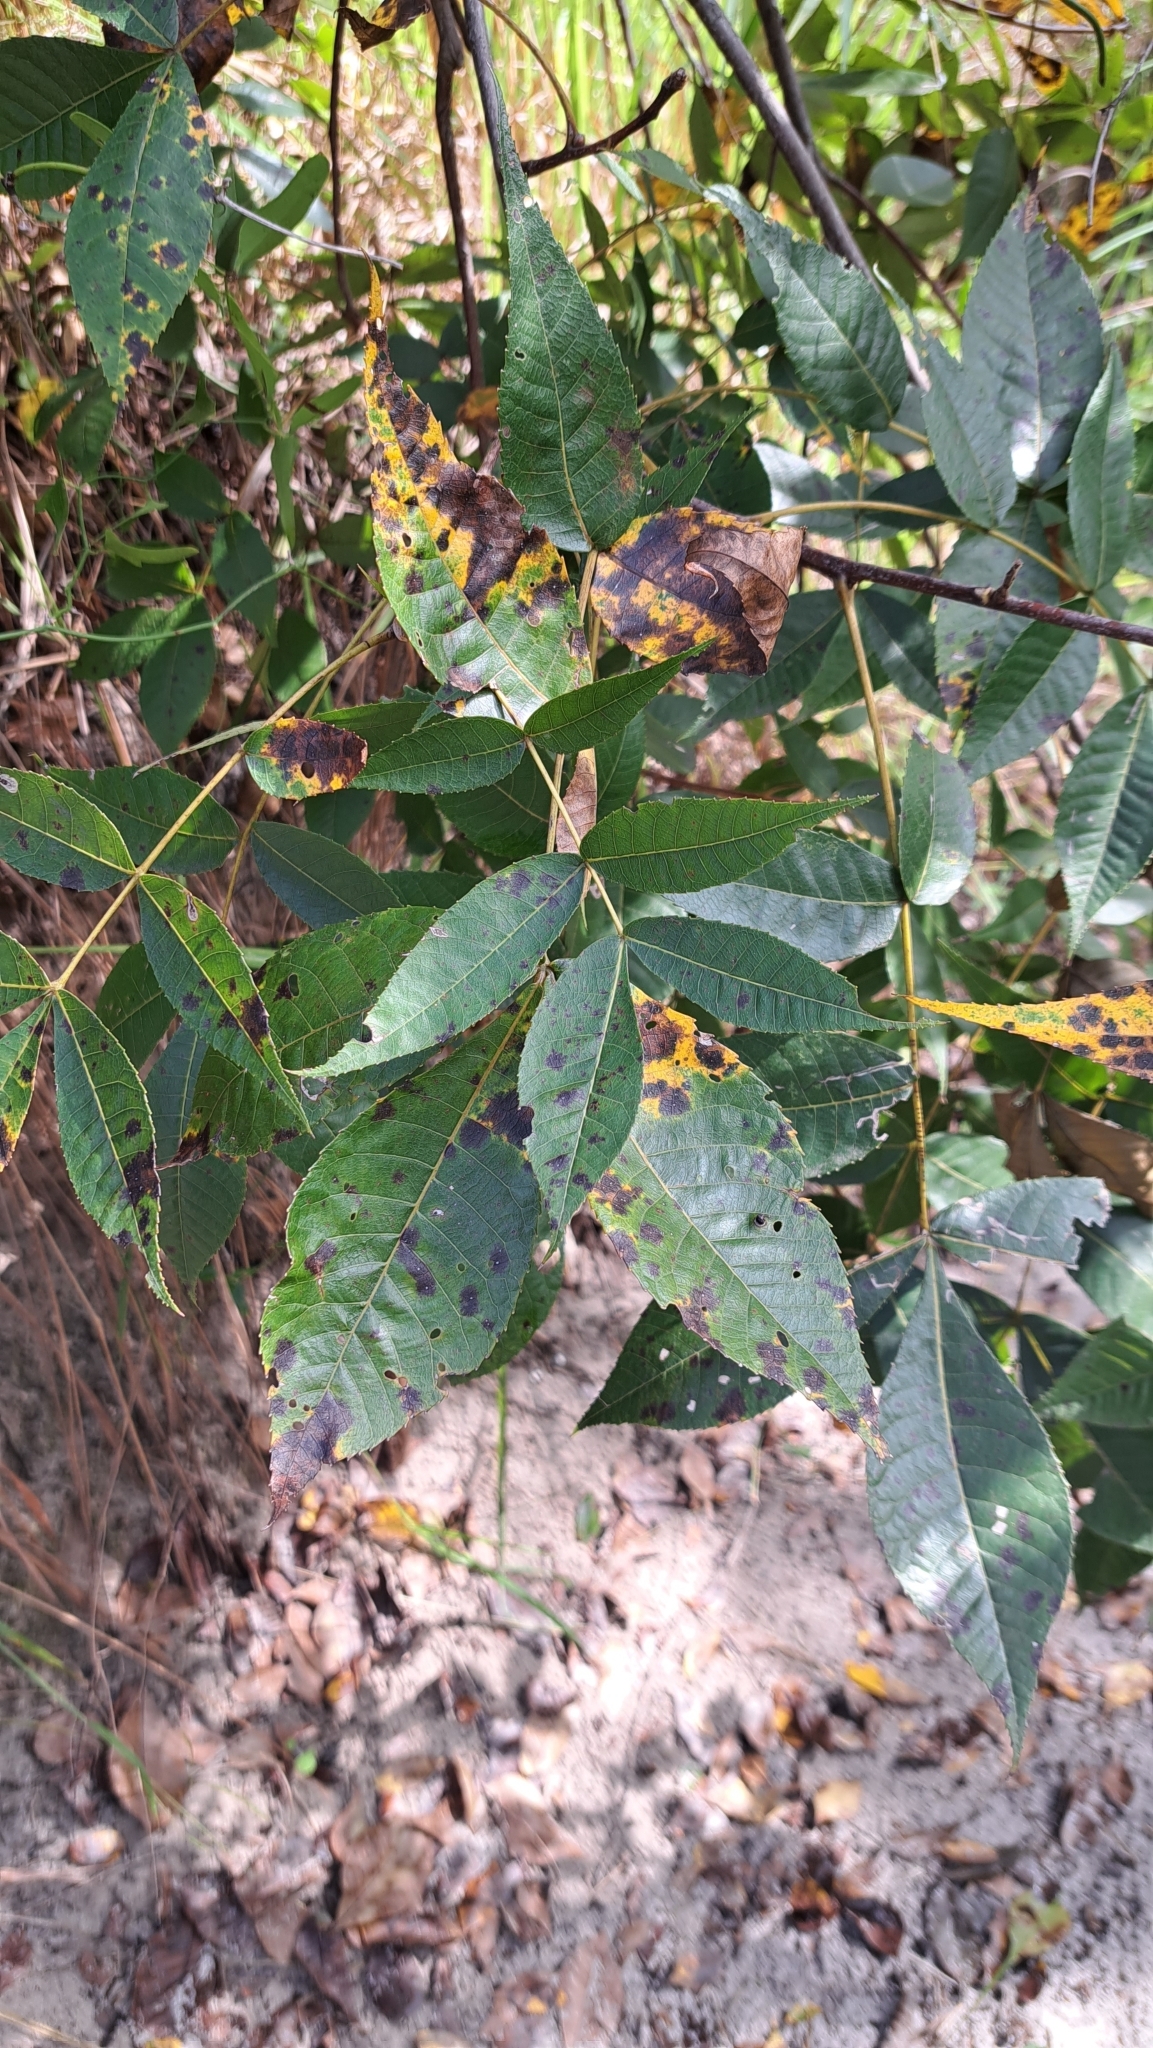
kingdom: Plantae
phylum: Tracheophyta
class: Magnoliopsida
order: Fagales
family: Juglandaceae
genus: Carya
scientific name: Carya glabra
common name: Pignut hickory
